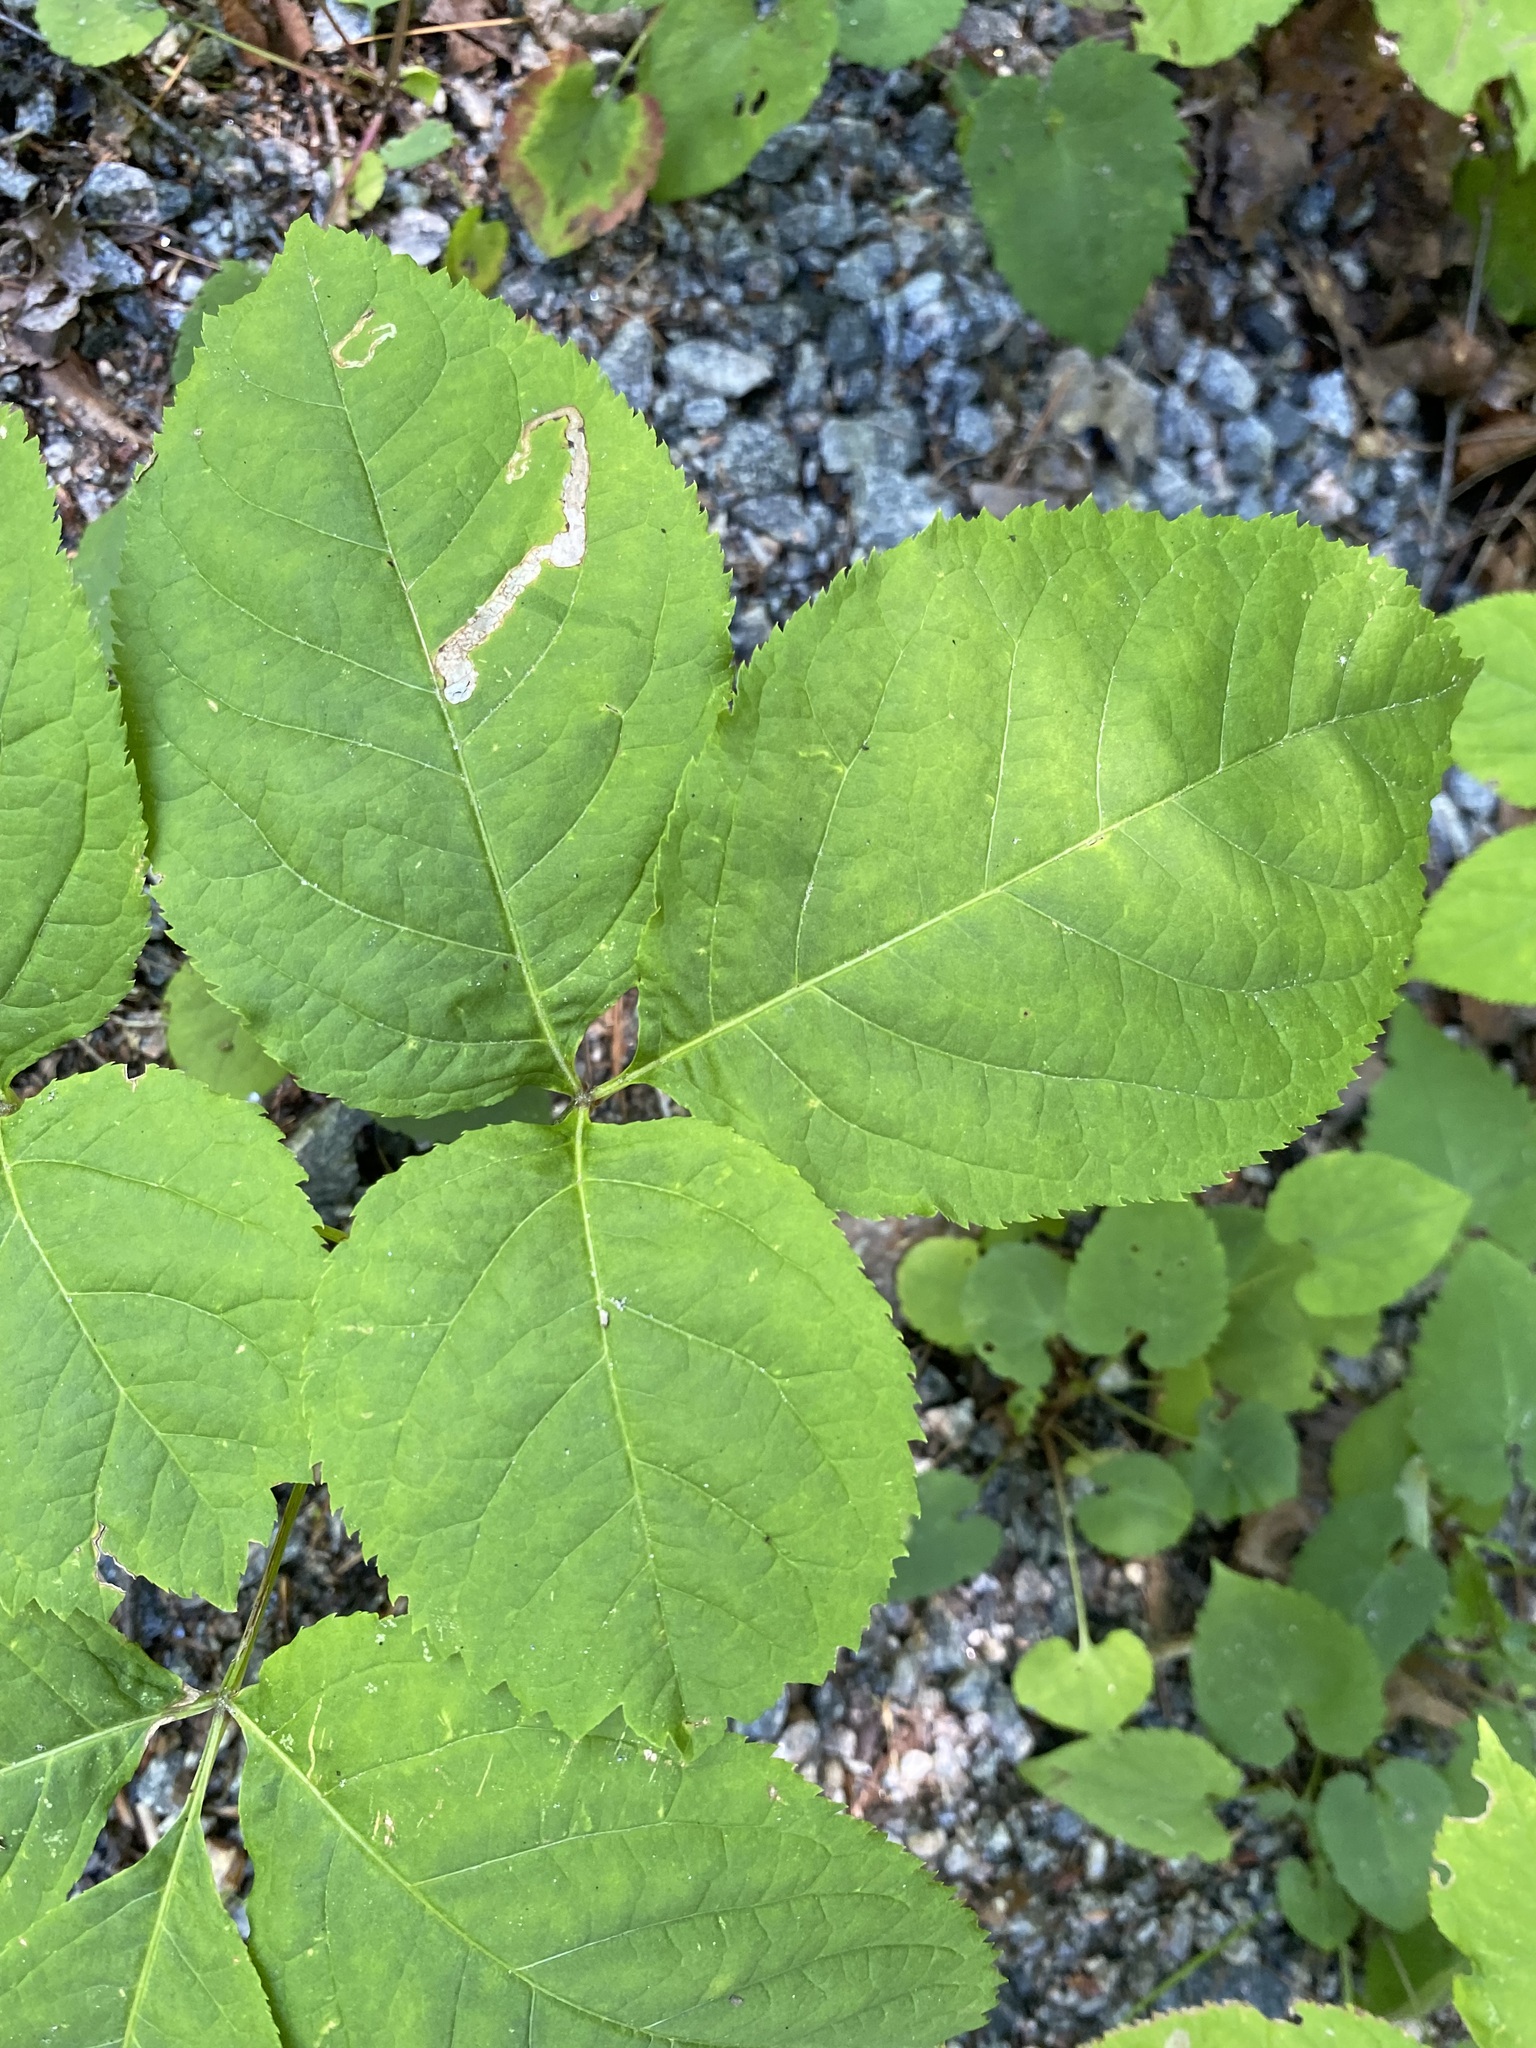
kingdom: Plantae
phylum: Tracheophyta
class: Magnoliopsida
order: Apiales
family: Araliaceae
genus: Aralia
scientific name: Aralia nudicaulis
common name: Wild sarsaparilla
